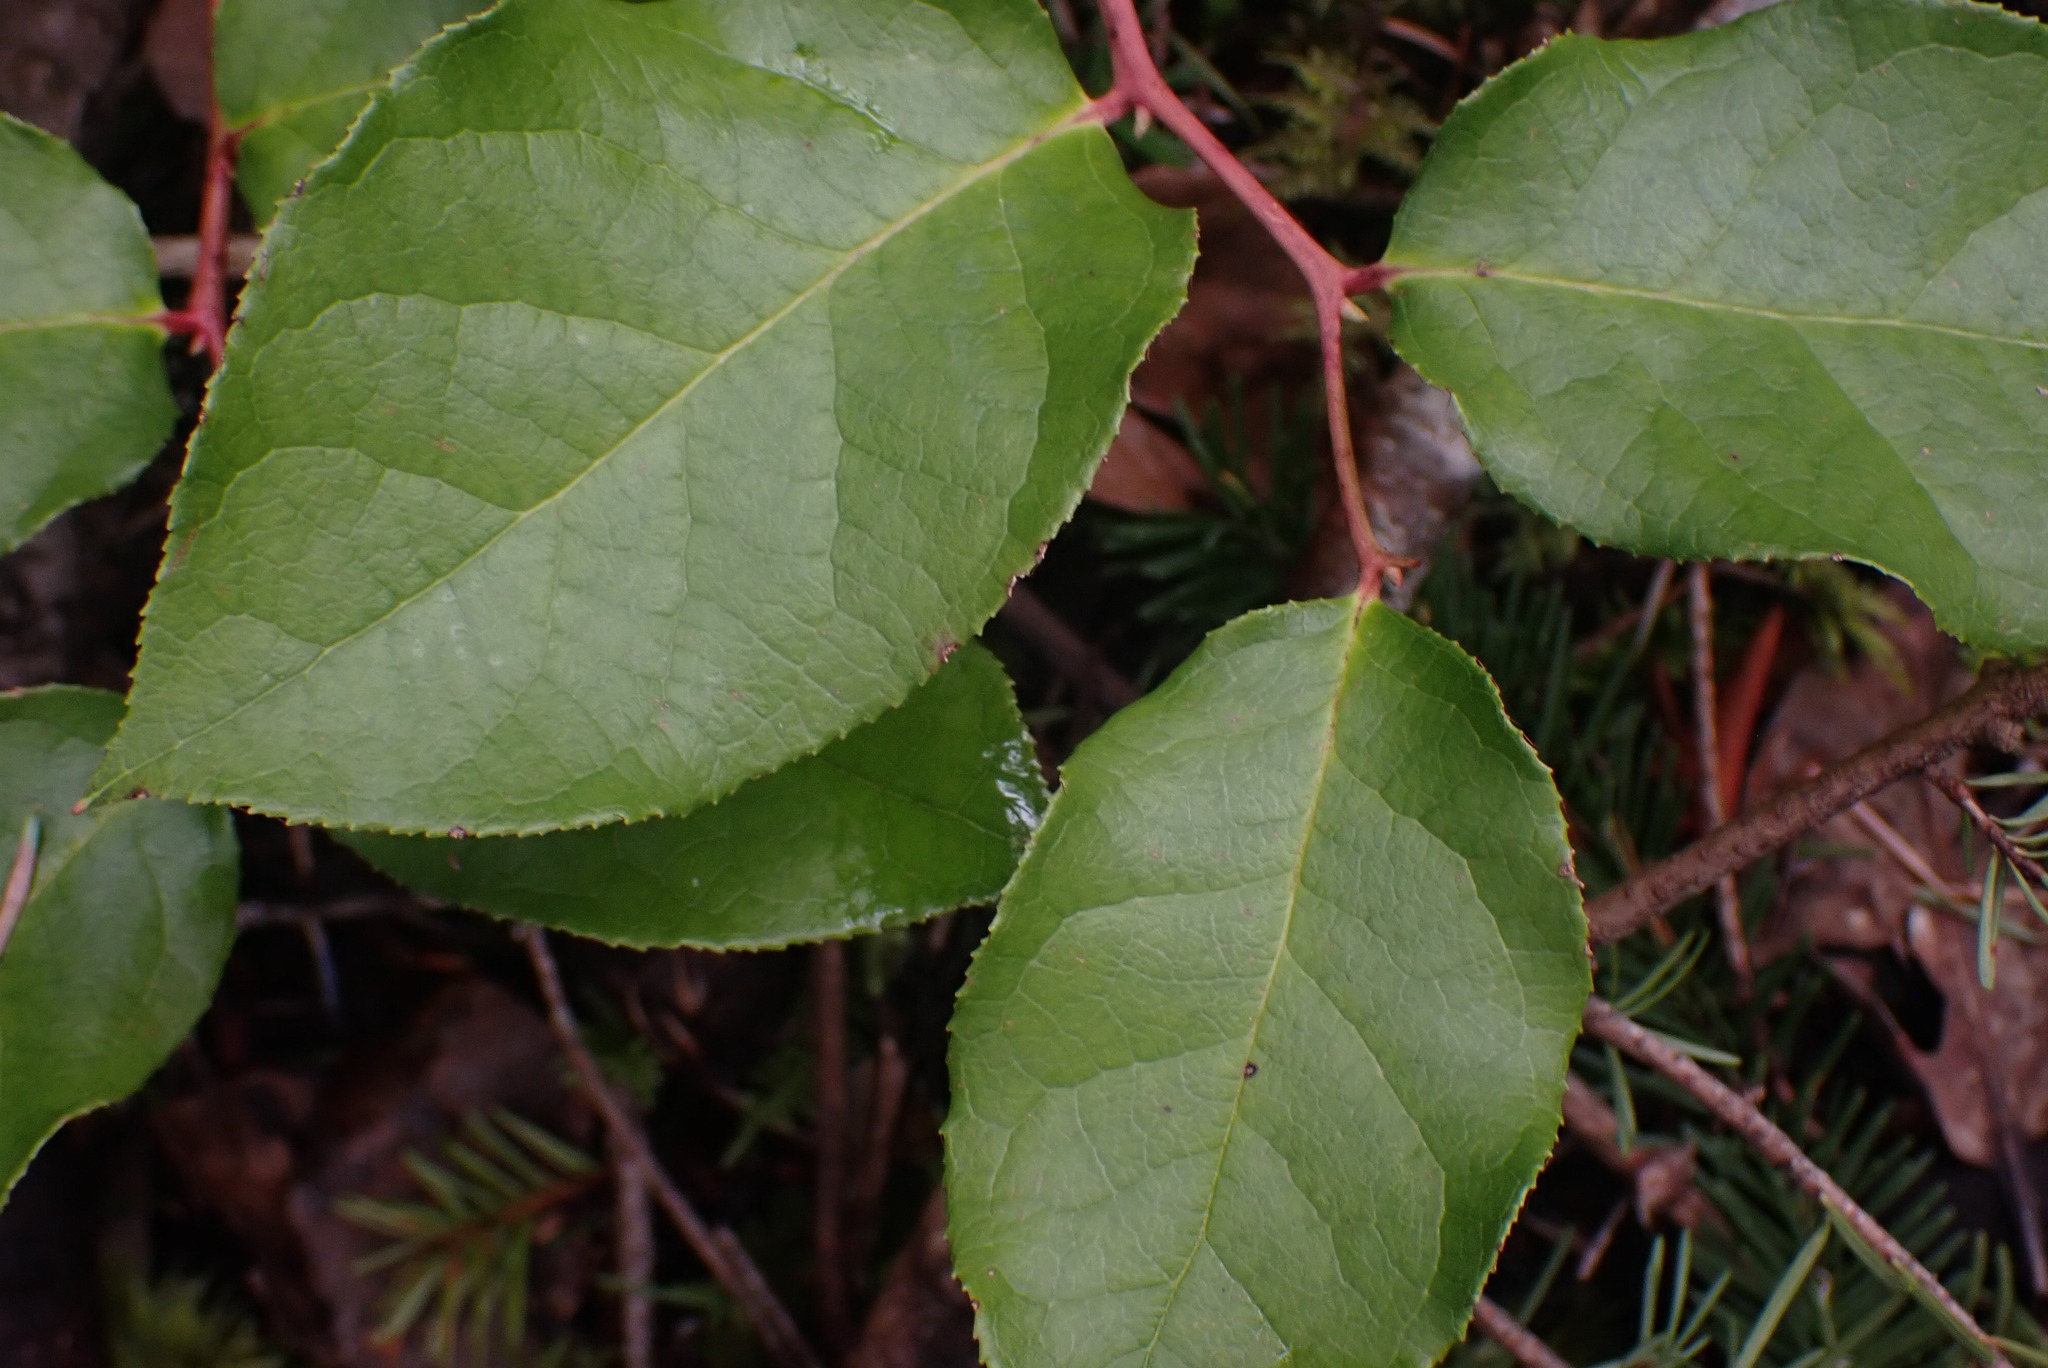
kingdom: Plantae
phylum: Tracheophyta
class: Magnoliopsida
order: Ericales
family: Ericaceae
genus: Gaultheria
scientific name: Gaultheria shallon
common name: Shallon
